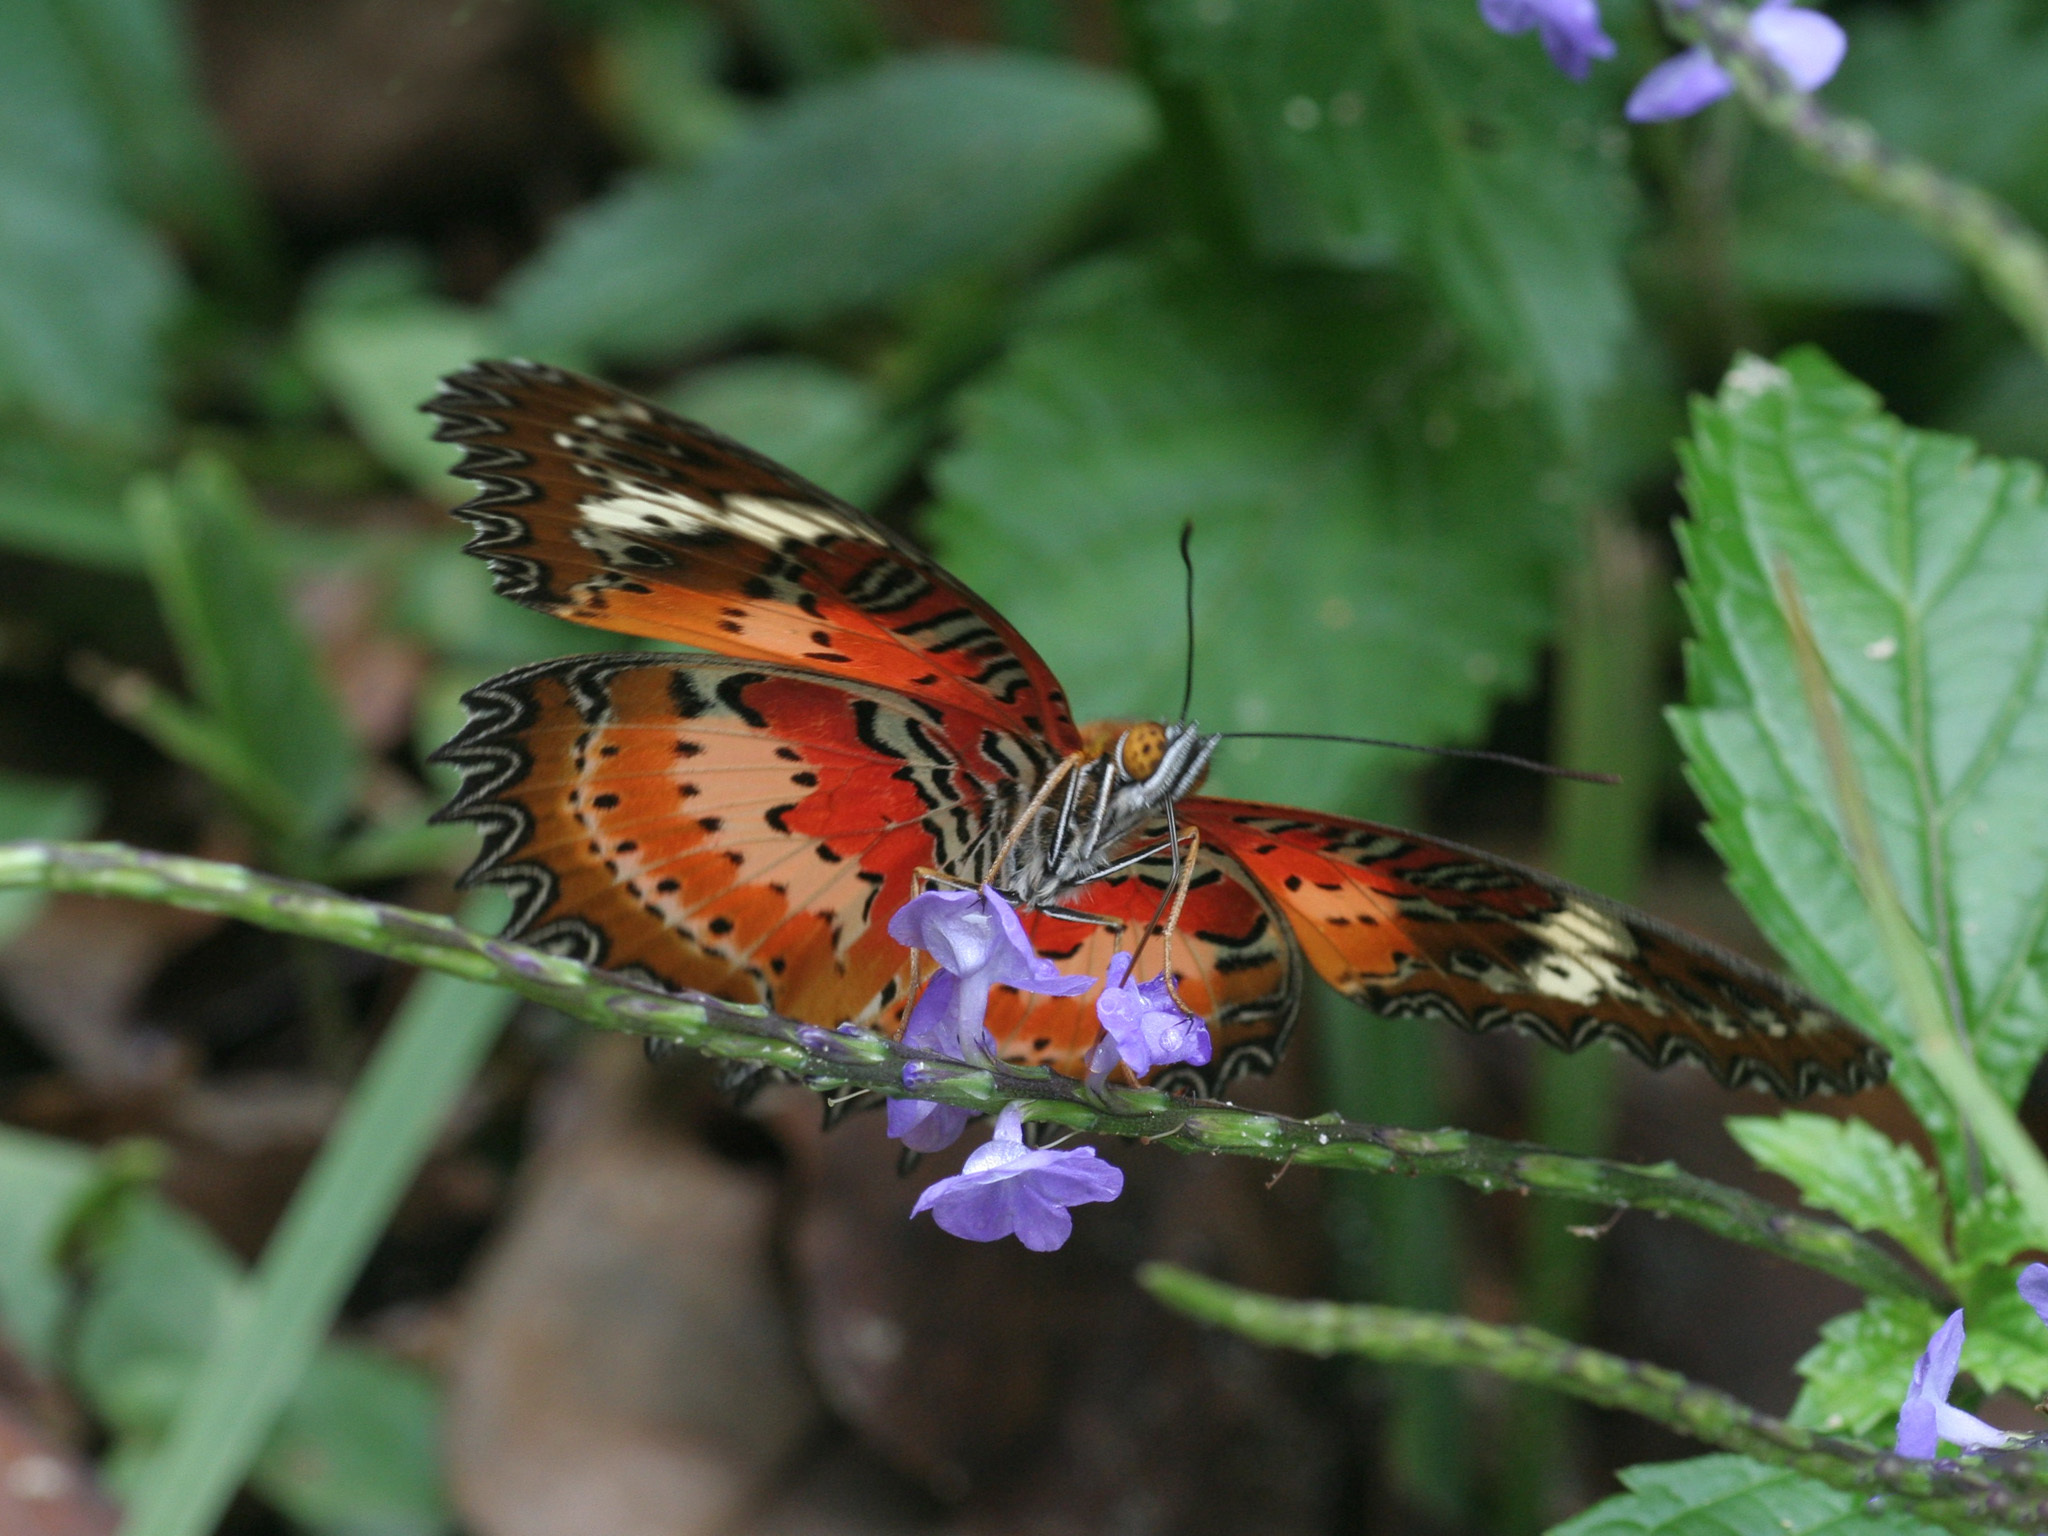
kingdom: Animalia
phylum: Arthropoda
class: Insecta
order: Lepidoptera
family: Nymphalidae
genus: Cethosia
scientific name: Cethosia penthesilea
